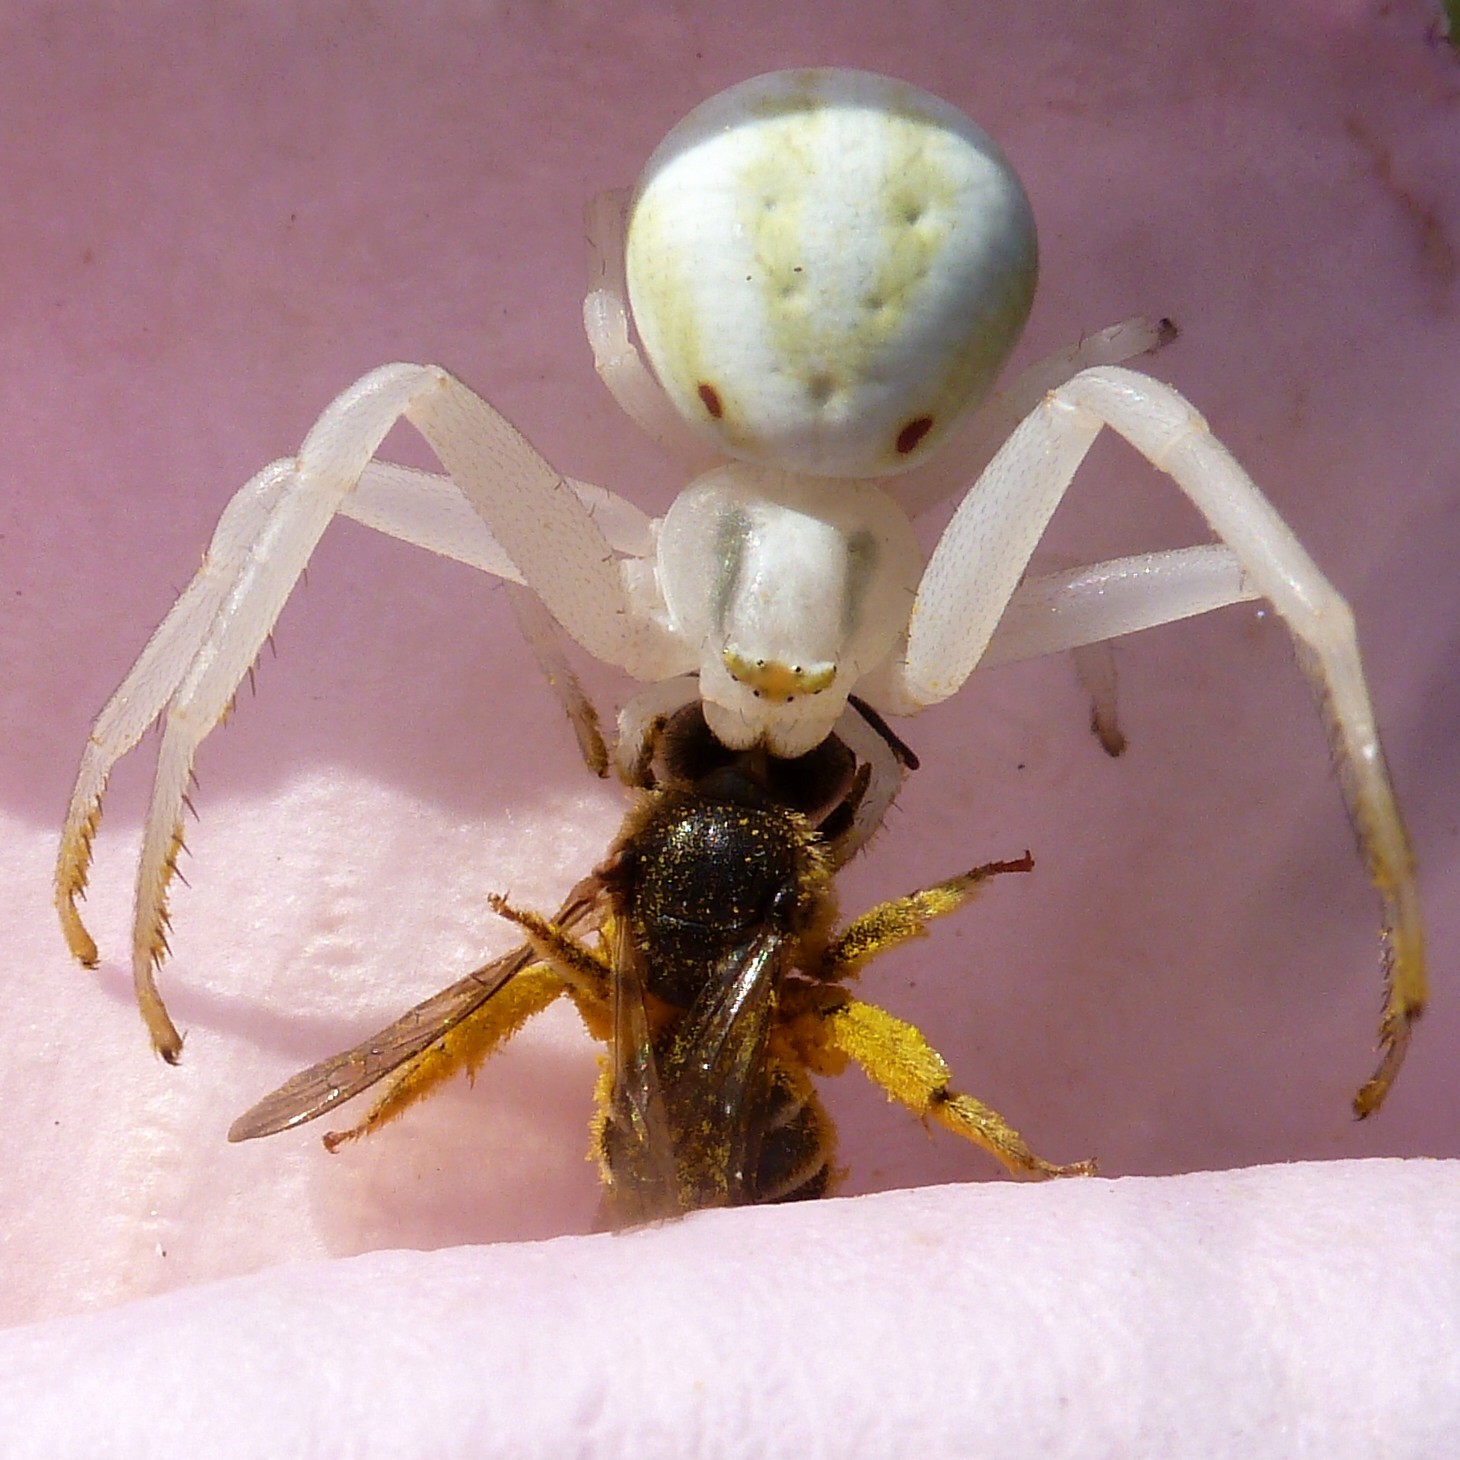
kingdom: Animalia
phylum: Arthropoda
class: Arachnida
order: Araneae
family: Thomisidae
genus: Misumena
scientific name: Misumena vatia
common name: Goldenrod crab spider
